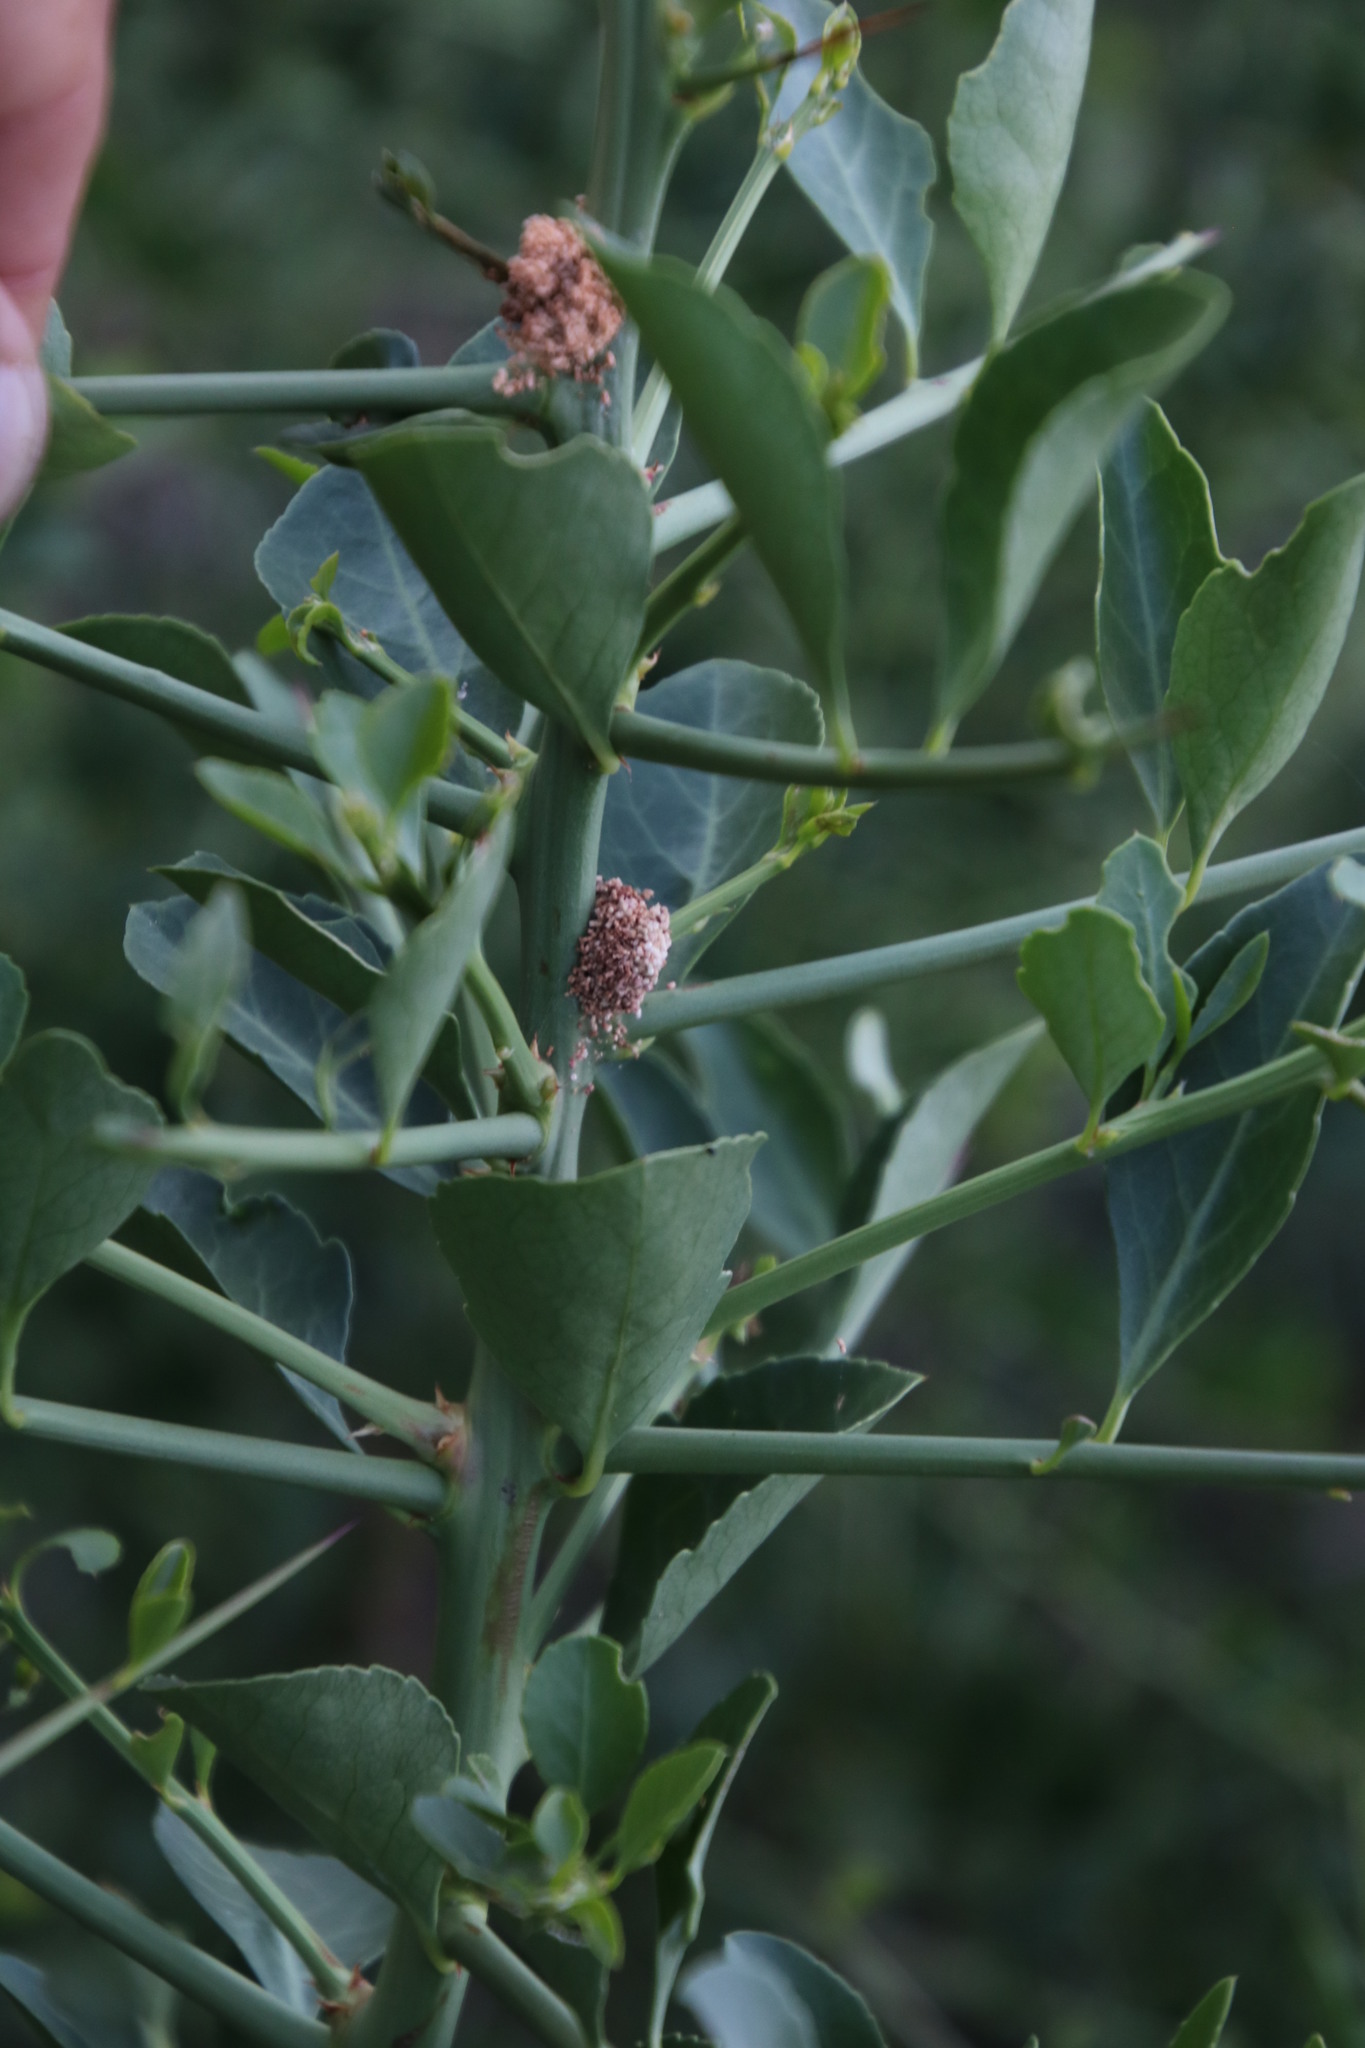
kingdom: Plantae
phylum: Tracheophyta
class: Magnoliopsida
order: Celastrales
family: Celastraceae
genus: Gymnosporia
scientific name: Gymnosporia buxifolia
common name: Common spike-thorn
